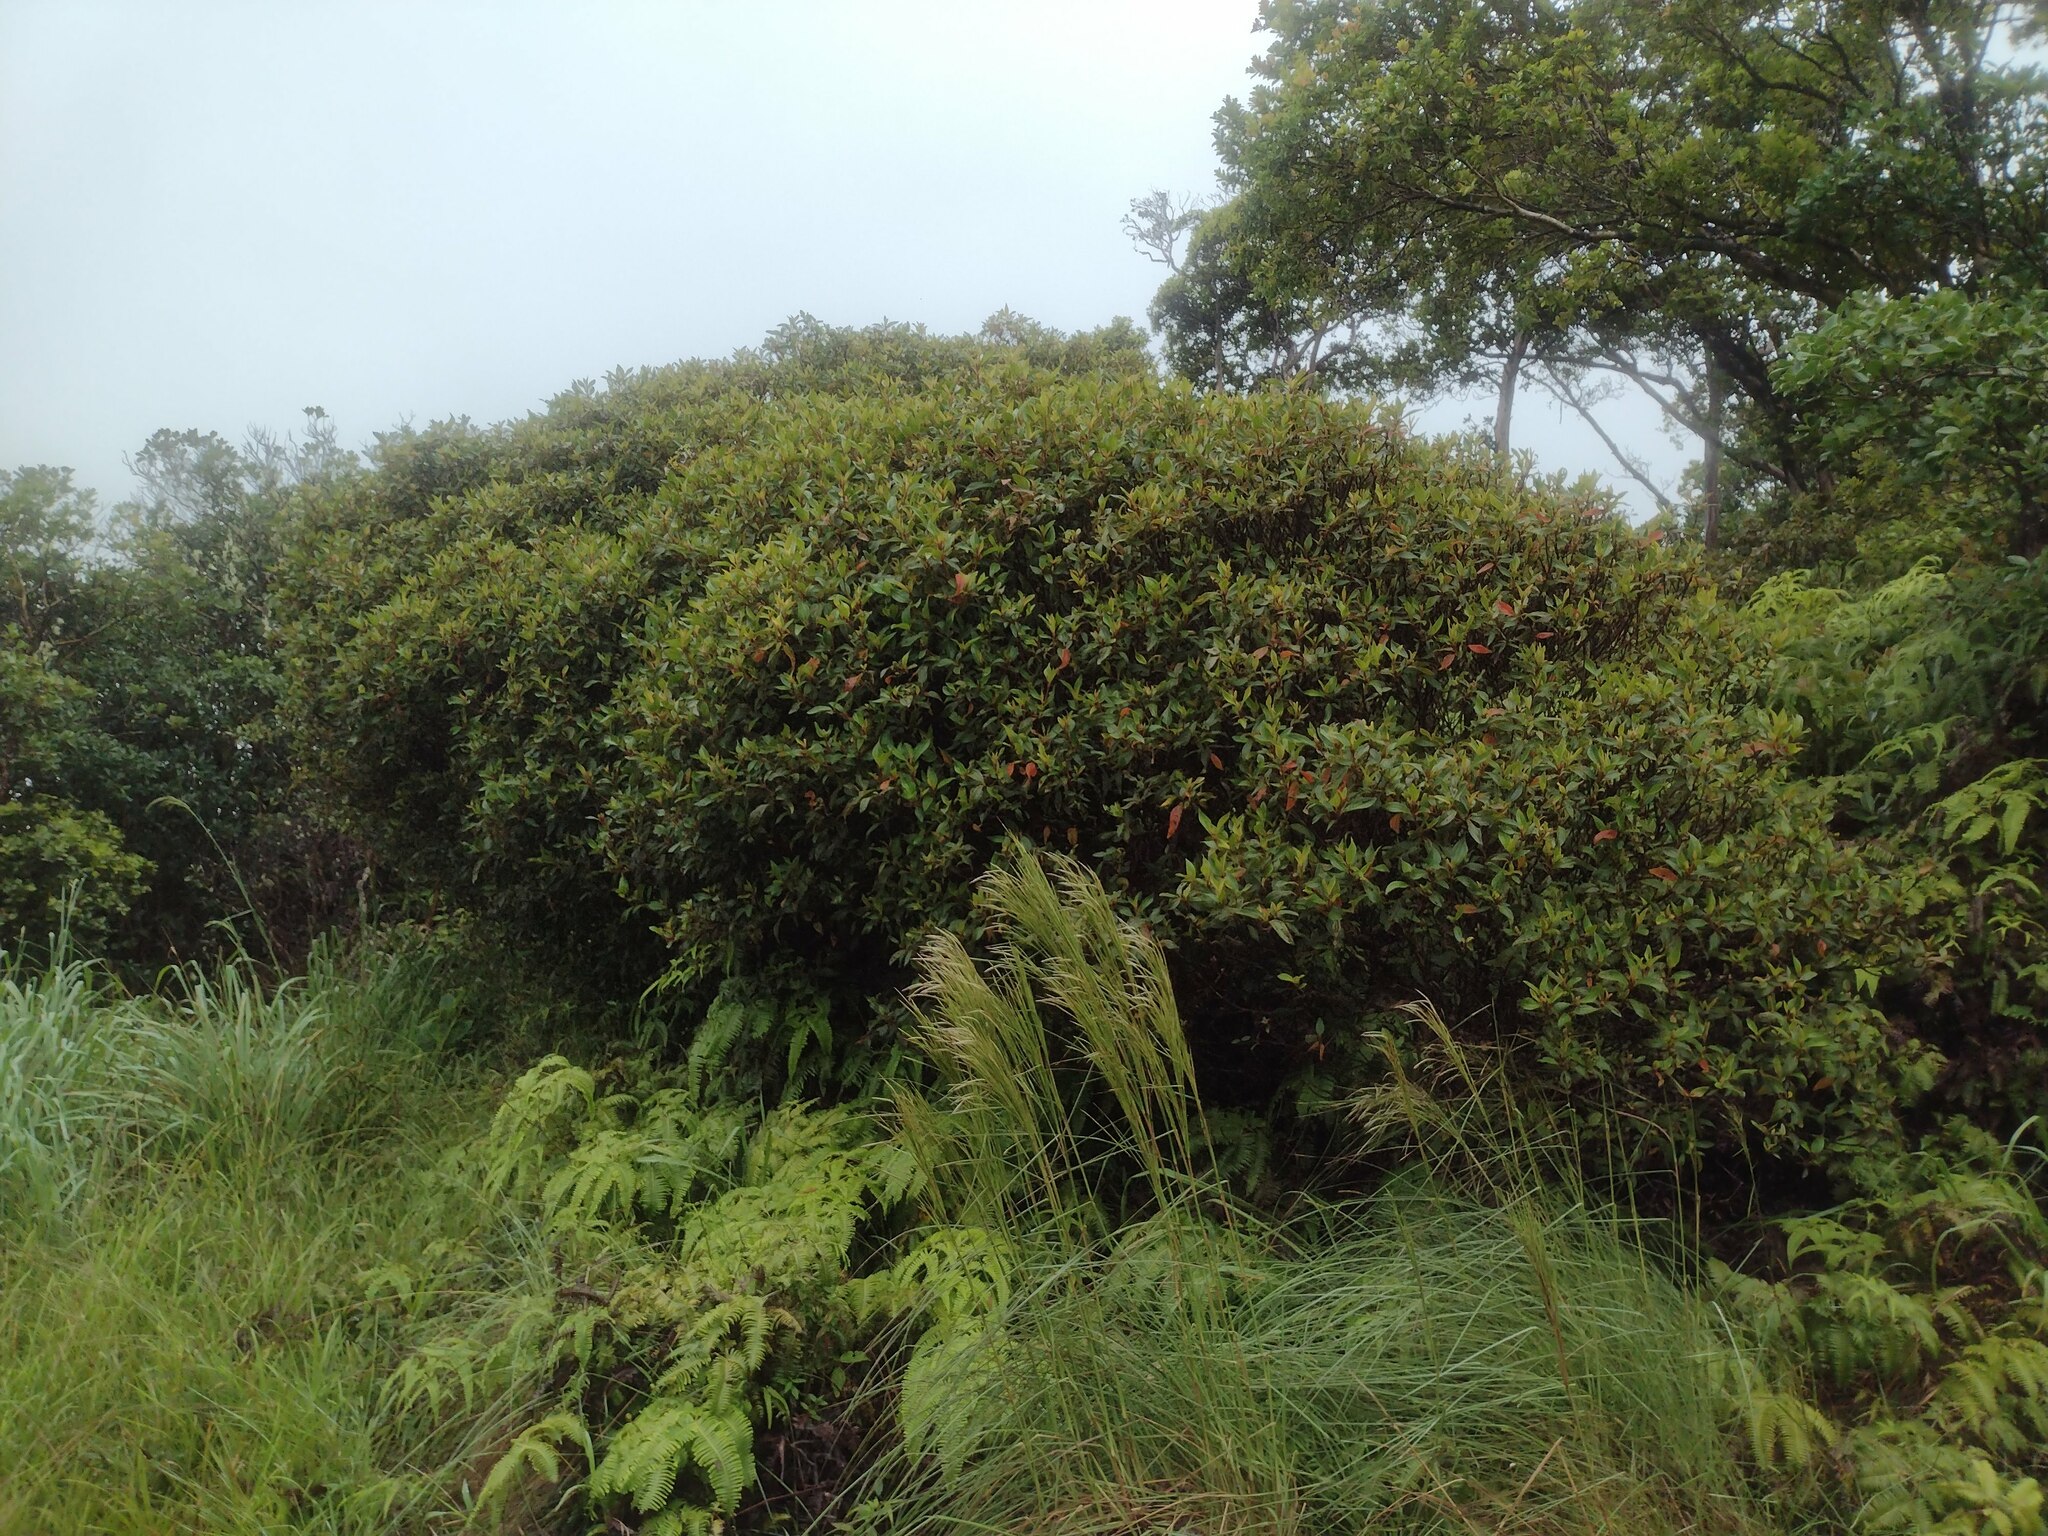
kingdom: Plantae
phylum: Tracheophyta
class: Magnoliopsida
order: Myrtales
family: Melastomataceae
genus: Melastoma
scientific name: Melastoma malabathricum
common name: Indian-rhododendron
